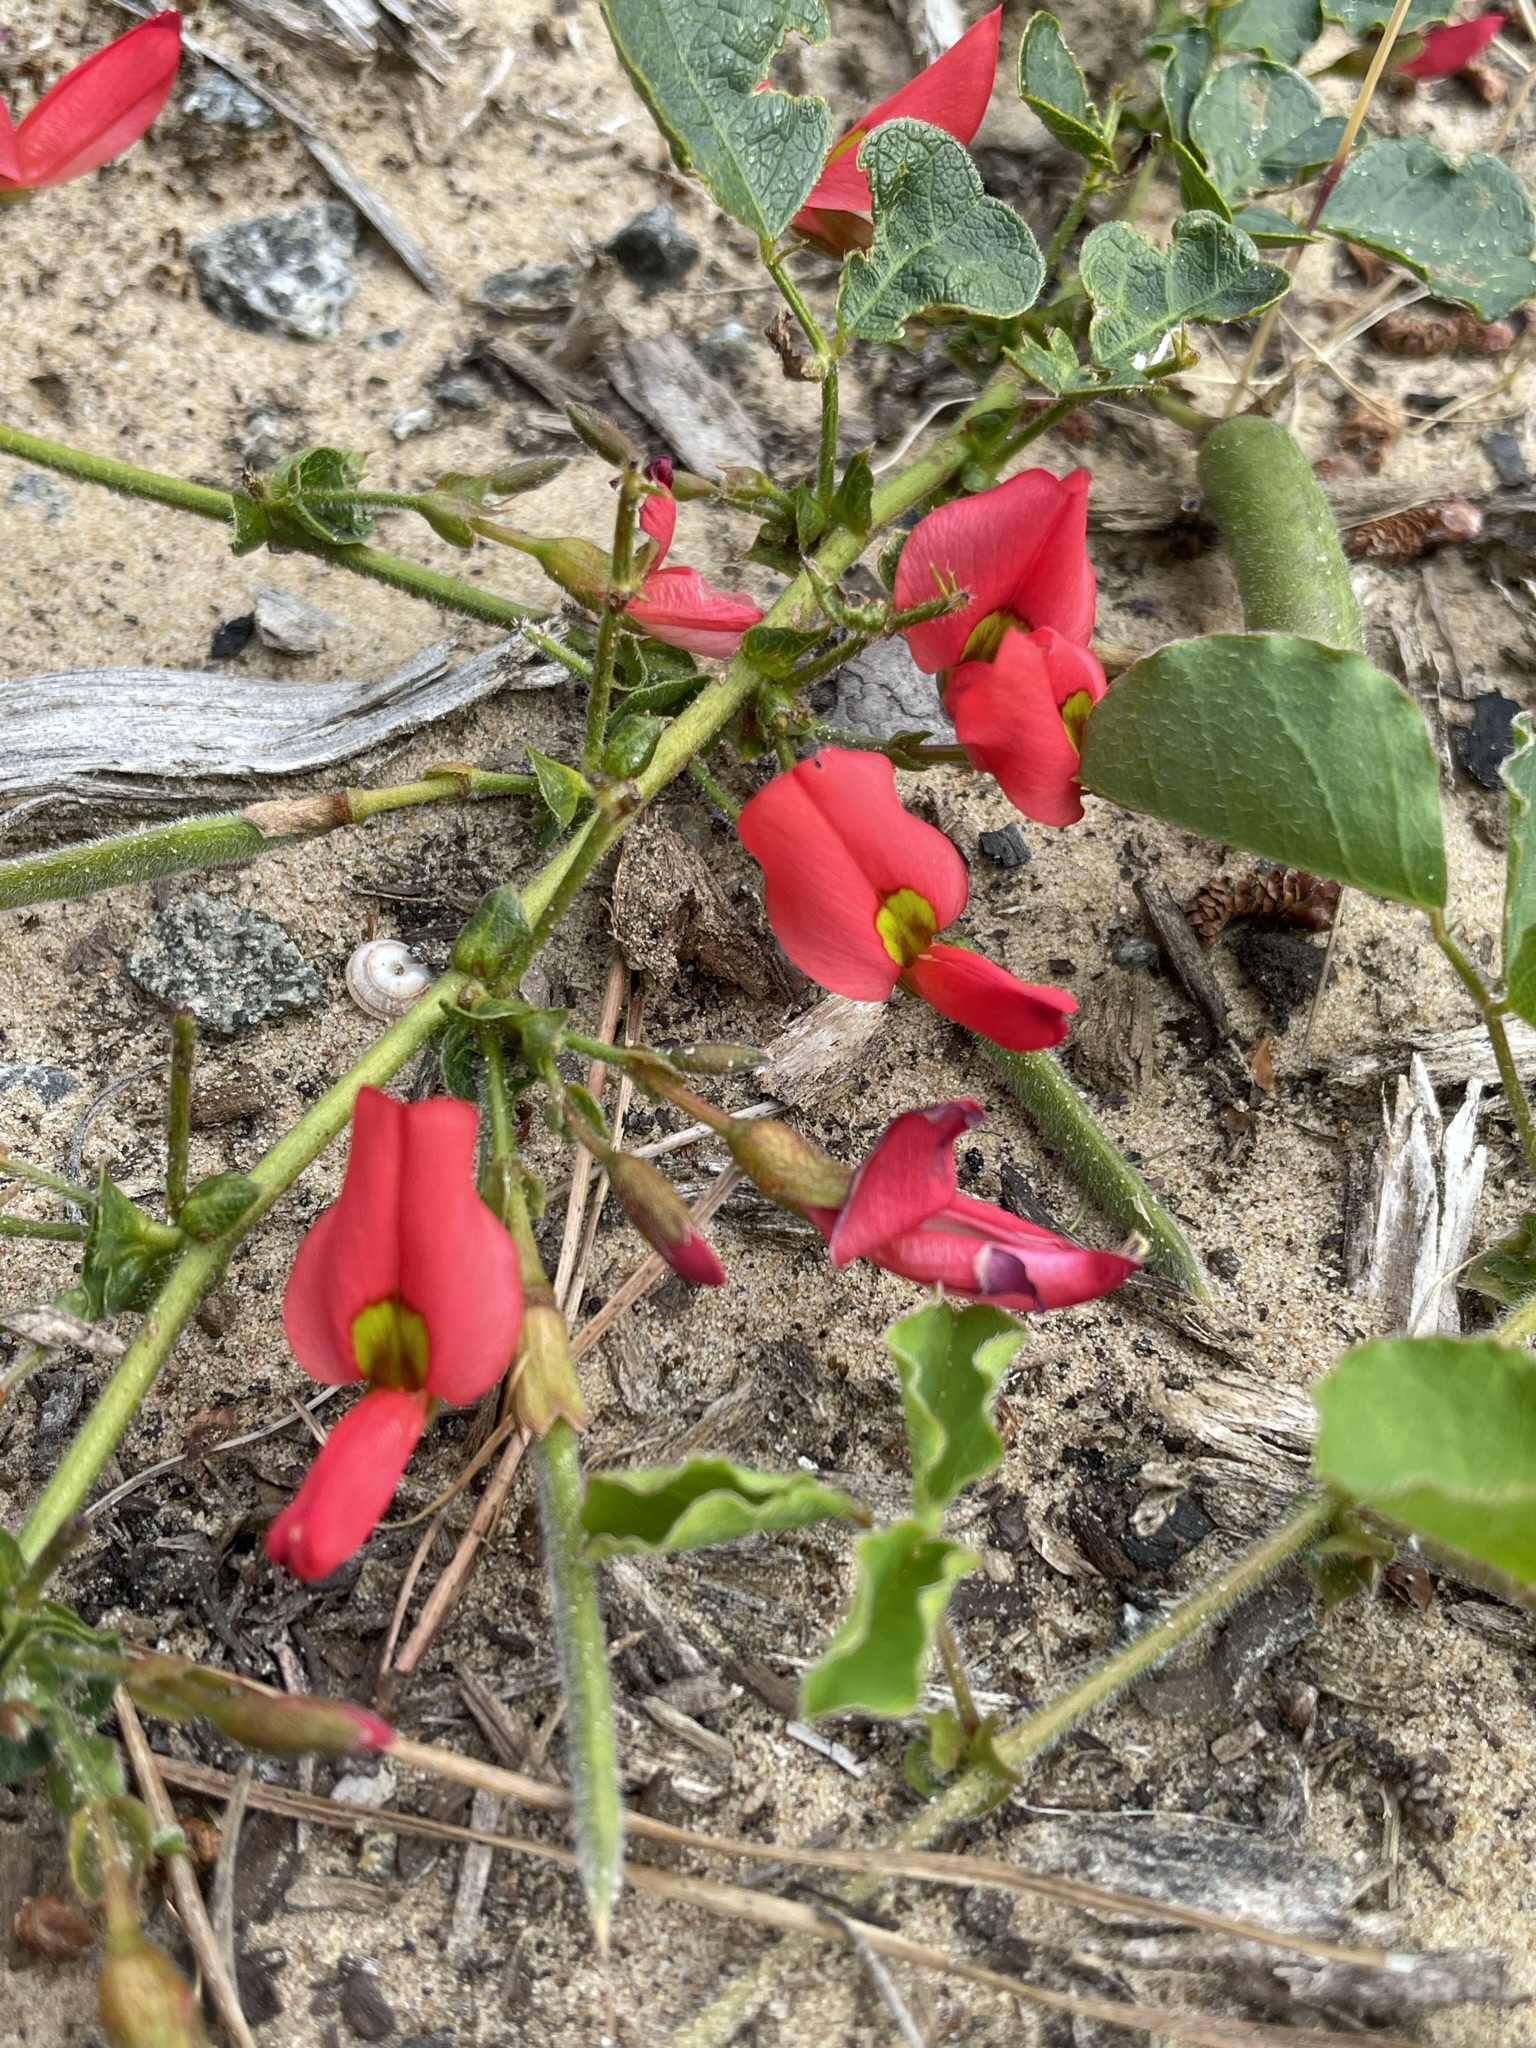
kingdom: Plantae
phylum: Tracheophyta
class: Magnoliopsida
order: Fabales
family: Fabaceae
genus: Kennedia
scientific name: Kennedia prostrata
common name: Running-postman
